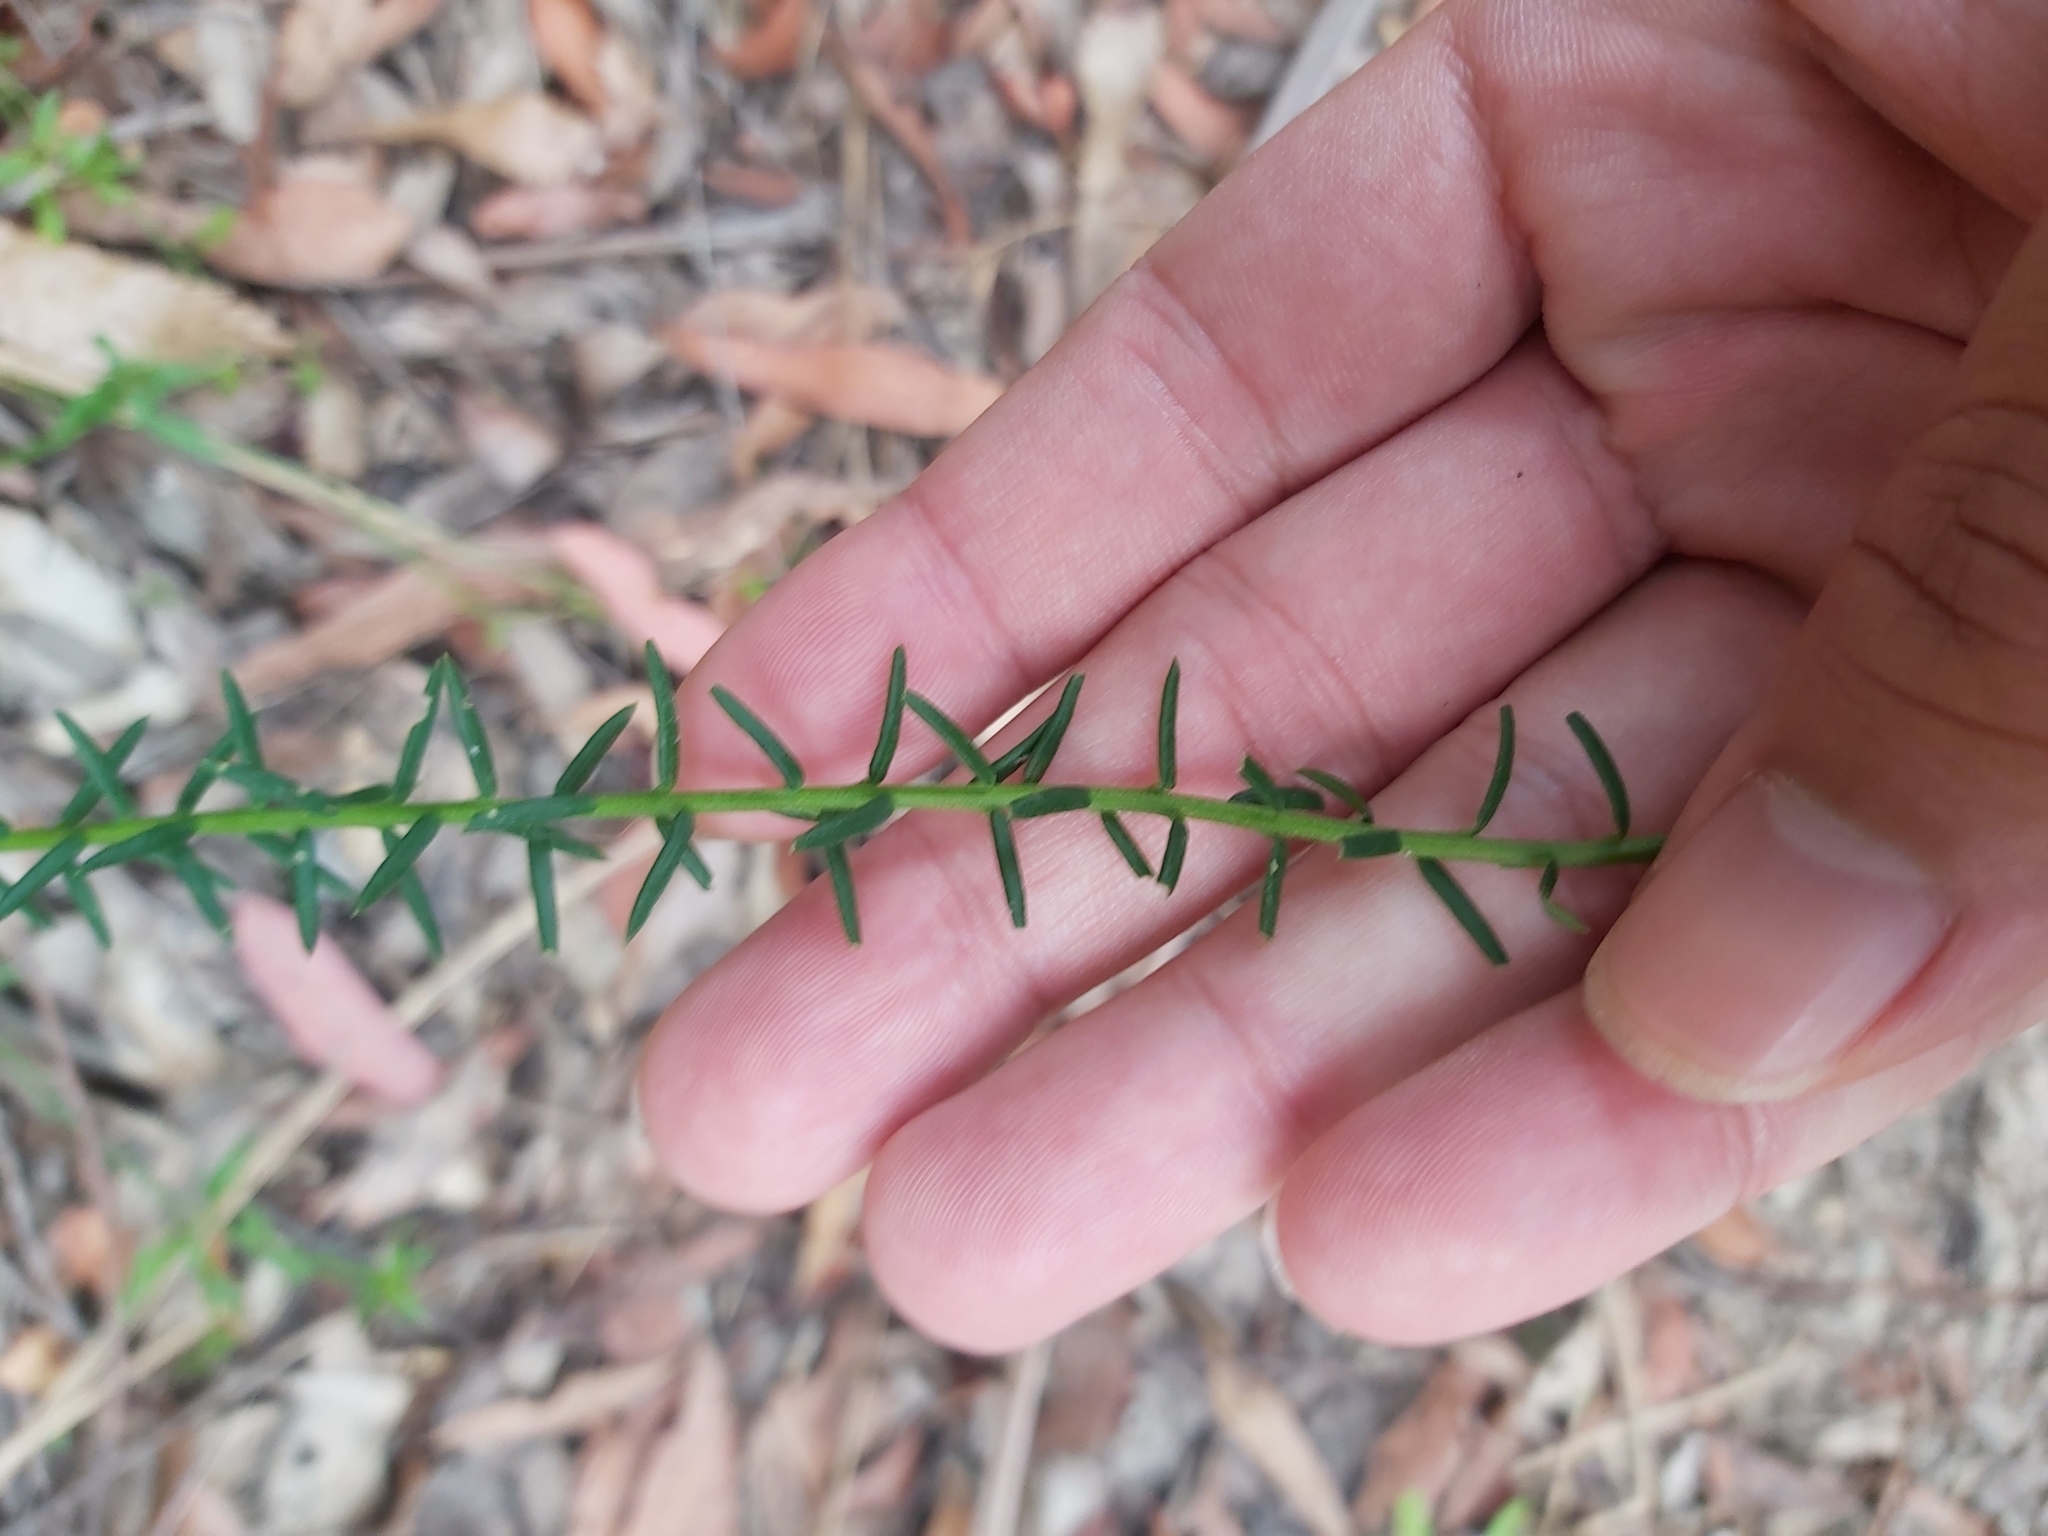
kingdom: Plantae
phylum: Tracheophyta
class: Magnoliopsida
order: Fabales
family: Polygalaceae
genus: Comesperma
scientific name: Comesperma ericinum
